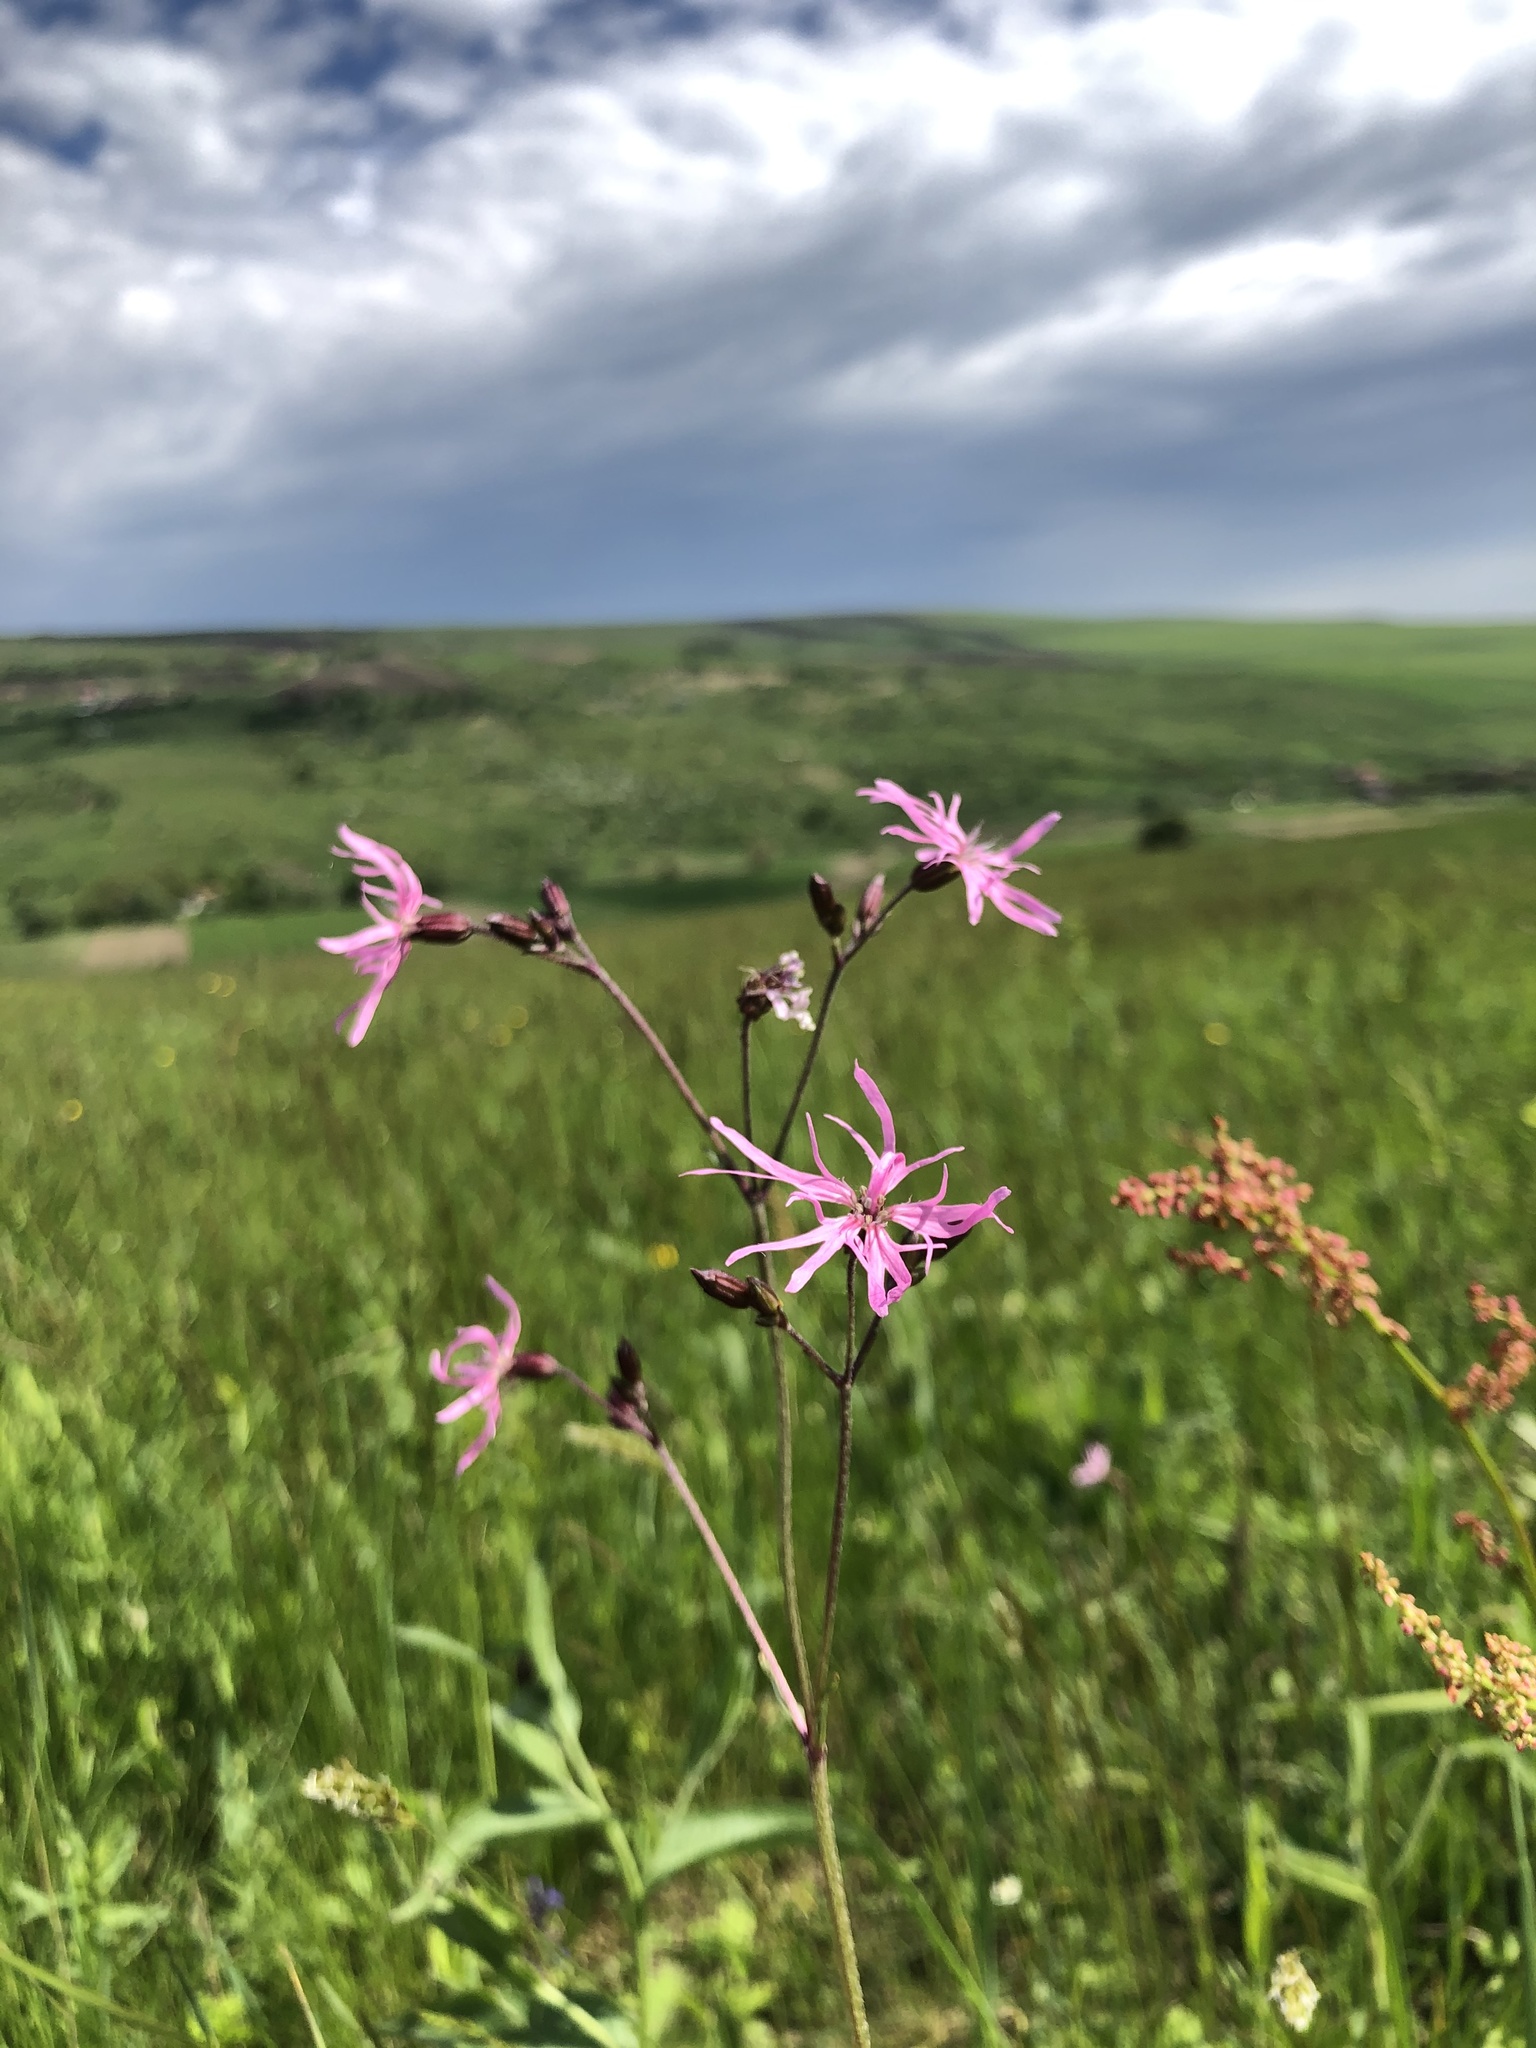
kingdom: Plantae
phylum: Tracheophyta
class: Magnoliopsida
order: Caryophyllales
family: Caryophyllaceae
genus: Silene
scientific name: Silene flos-cuculi
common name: Ragged-robin
